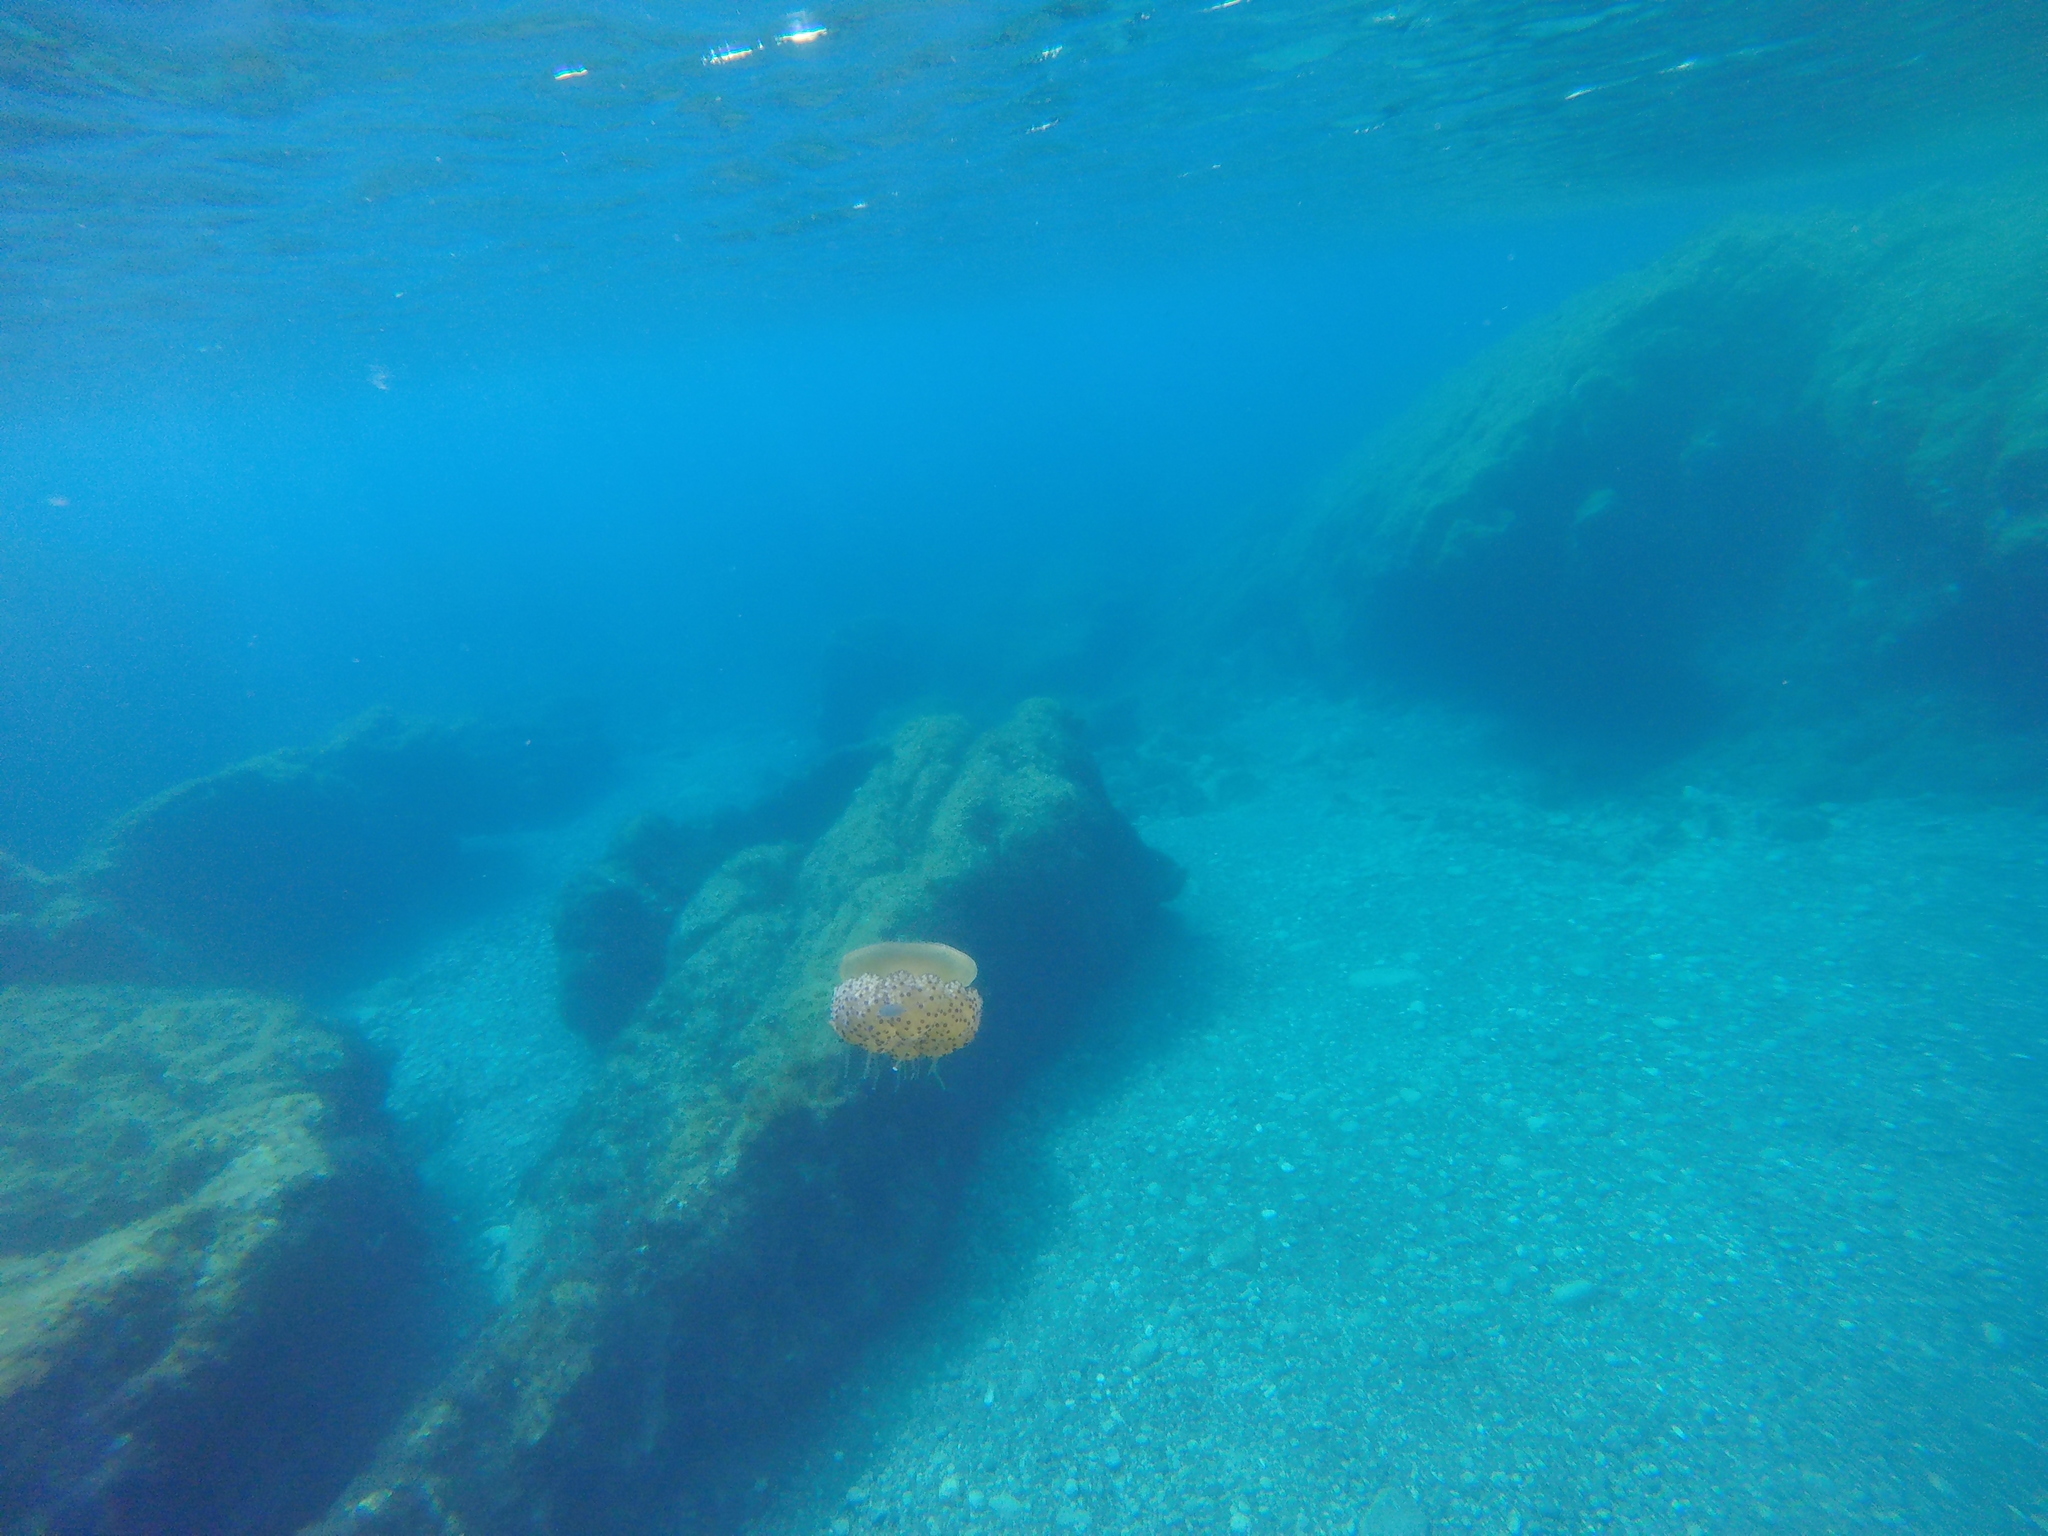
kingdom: Animalia
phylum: Cnidaria
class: Scyphozoa
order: Rhizostomeae
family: Cepheidae
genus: Cotylorhiza
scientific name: Cotylorhiza tuberculata
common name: Mediterranean jelly
